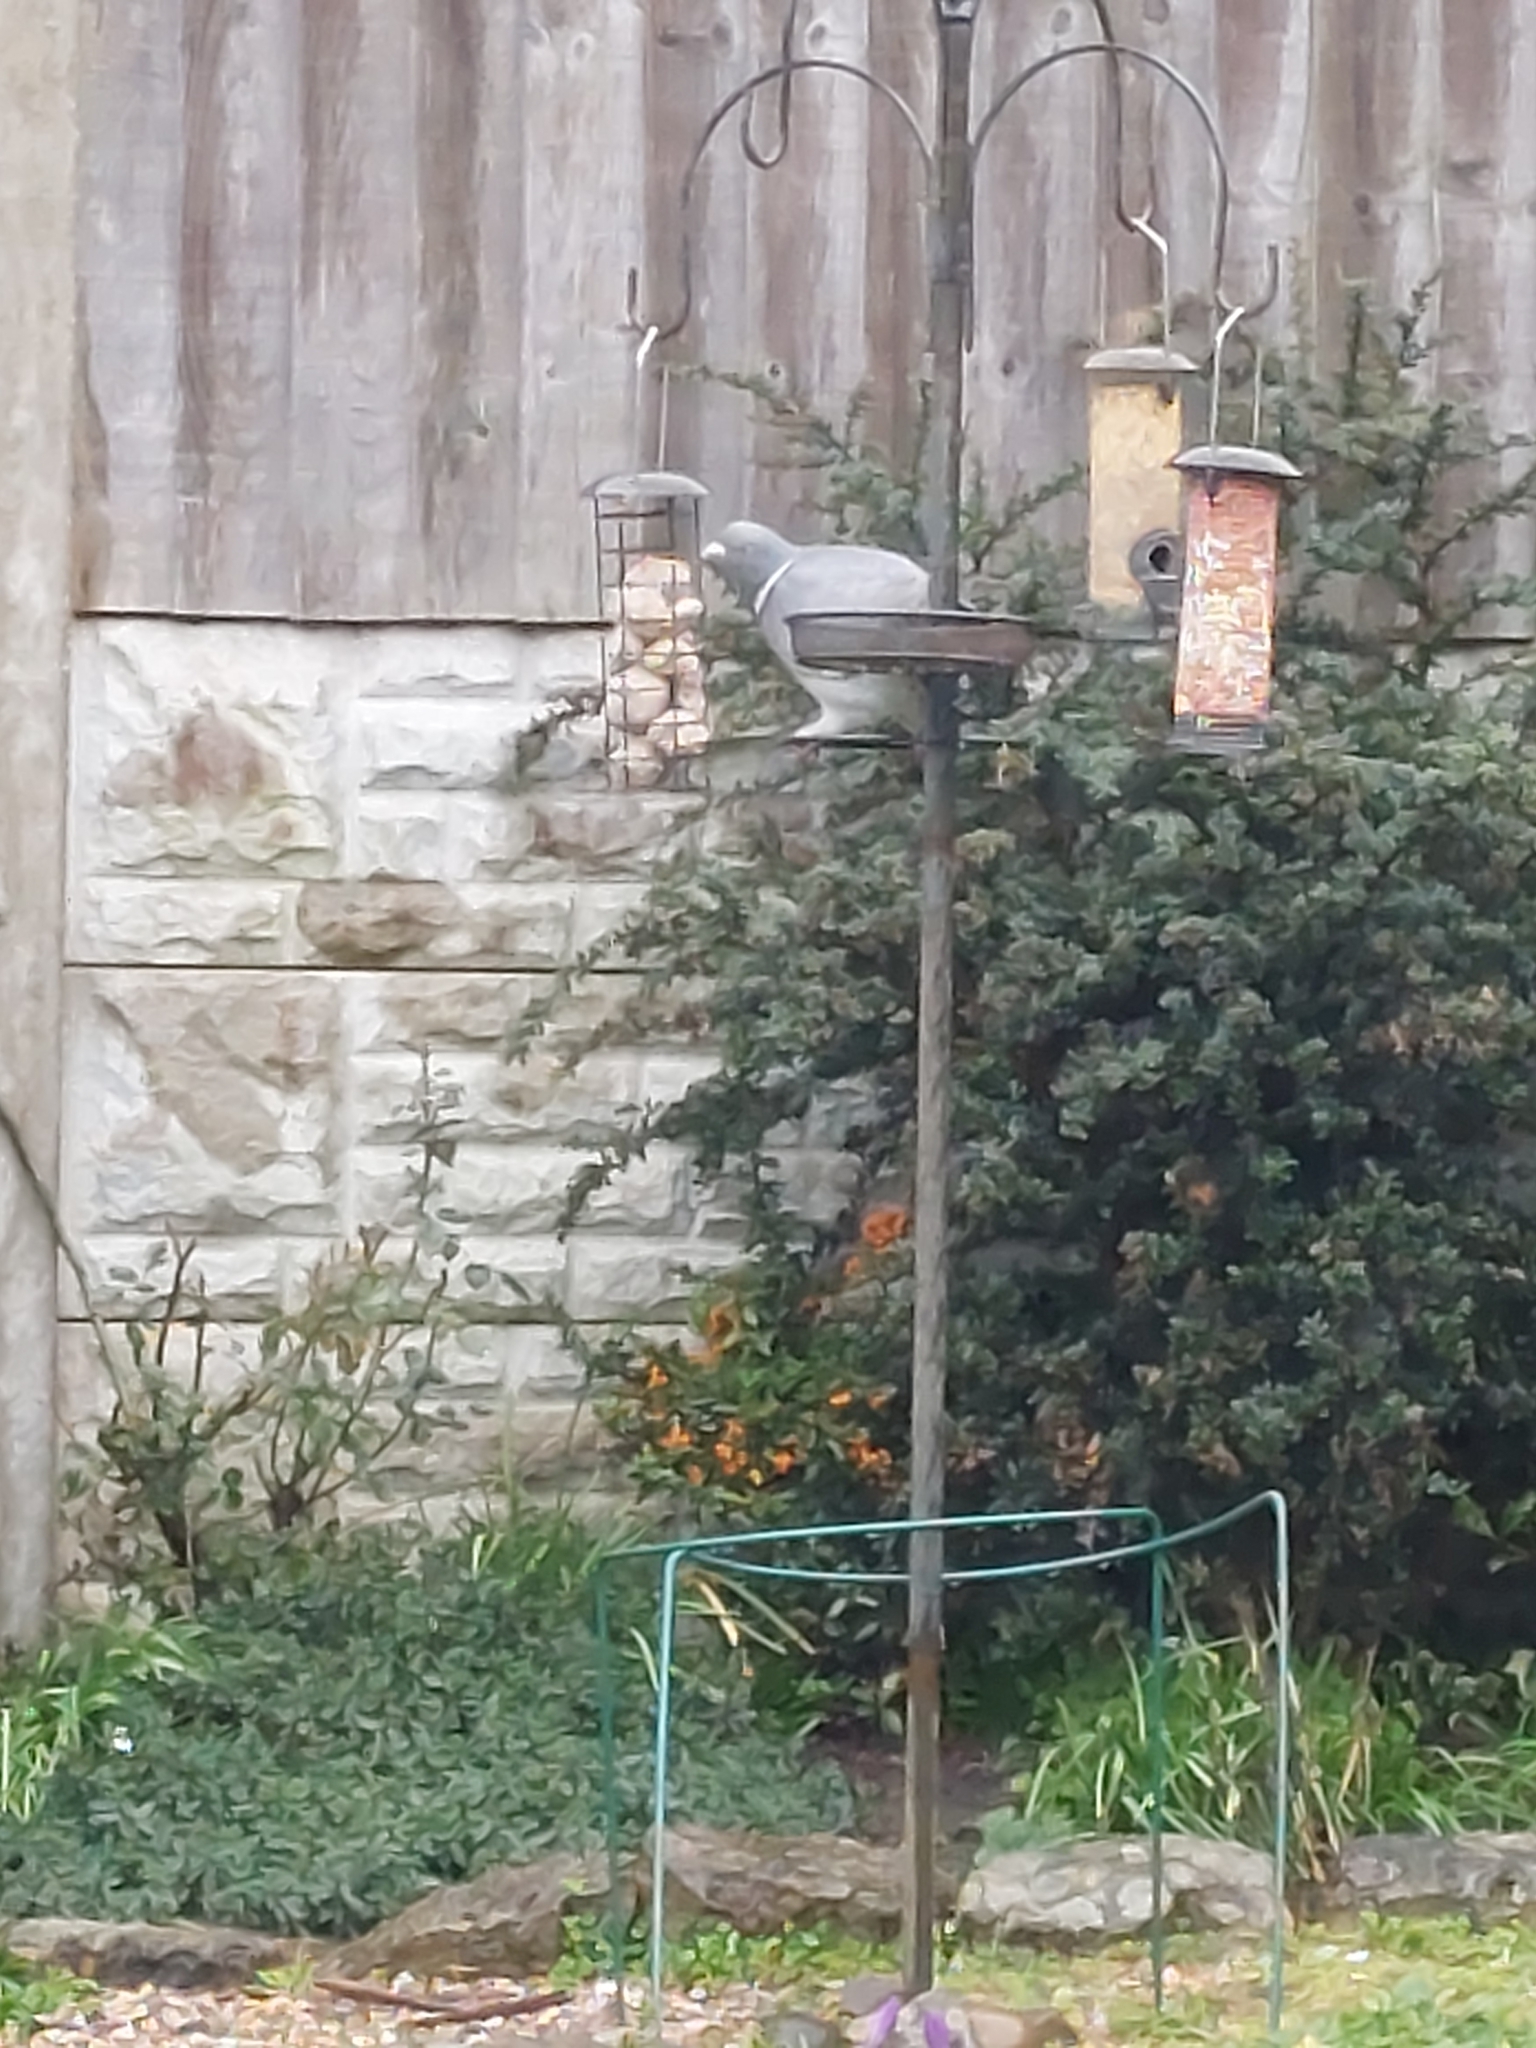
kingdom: Animalia
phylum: Chordata
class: Aves
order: Columbiformes
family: Columbidae
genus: Columba
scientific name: Columba palumbus
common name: Common wood pigeon
